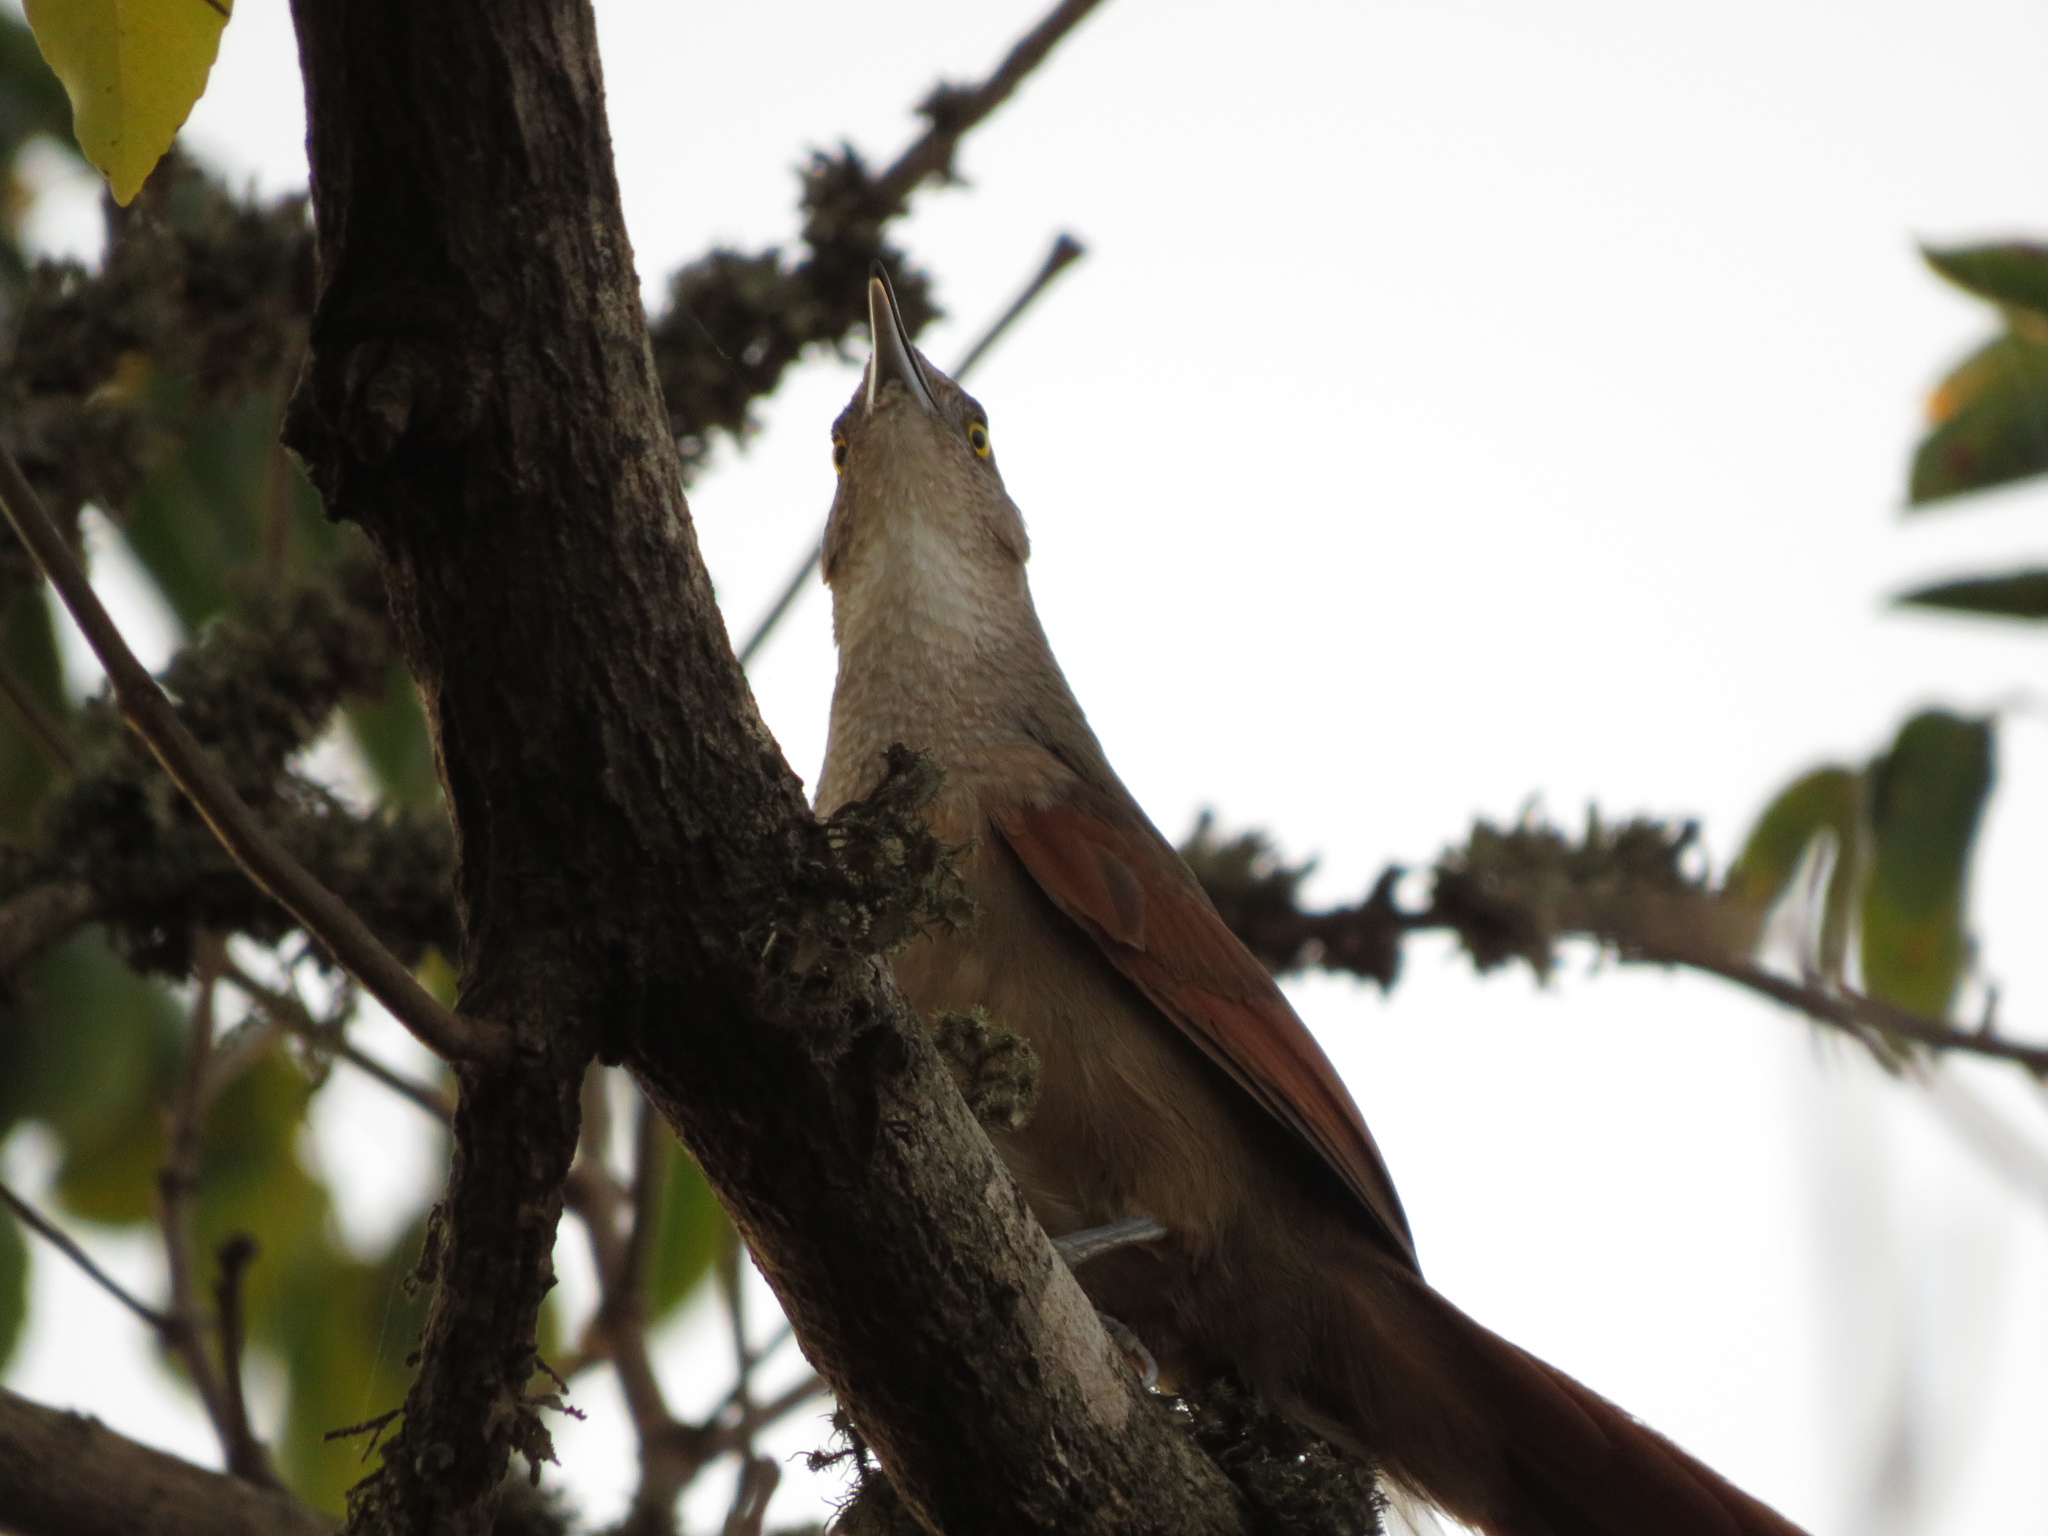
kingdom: Animalia
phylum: Chordata
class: Aves
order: Passeriformes
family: Furnariidae
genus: Phacellodomus
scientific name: Phacellodomus ruber
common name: Greater thornbird
